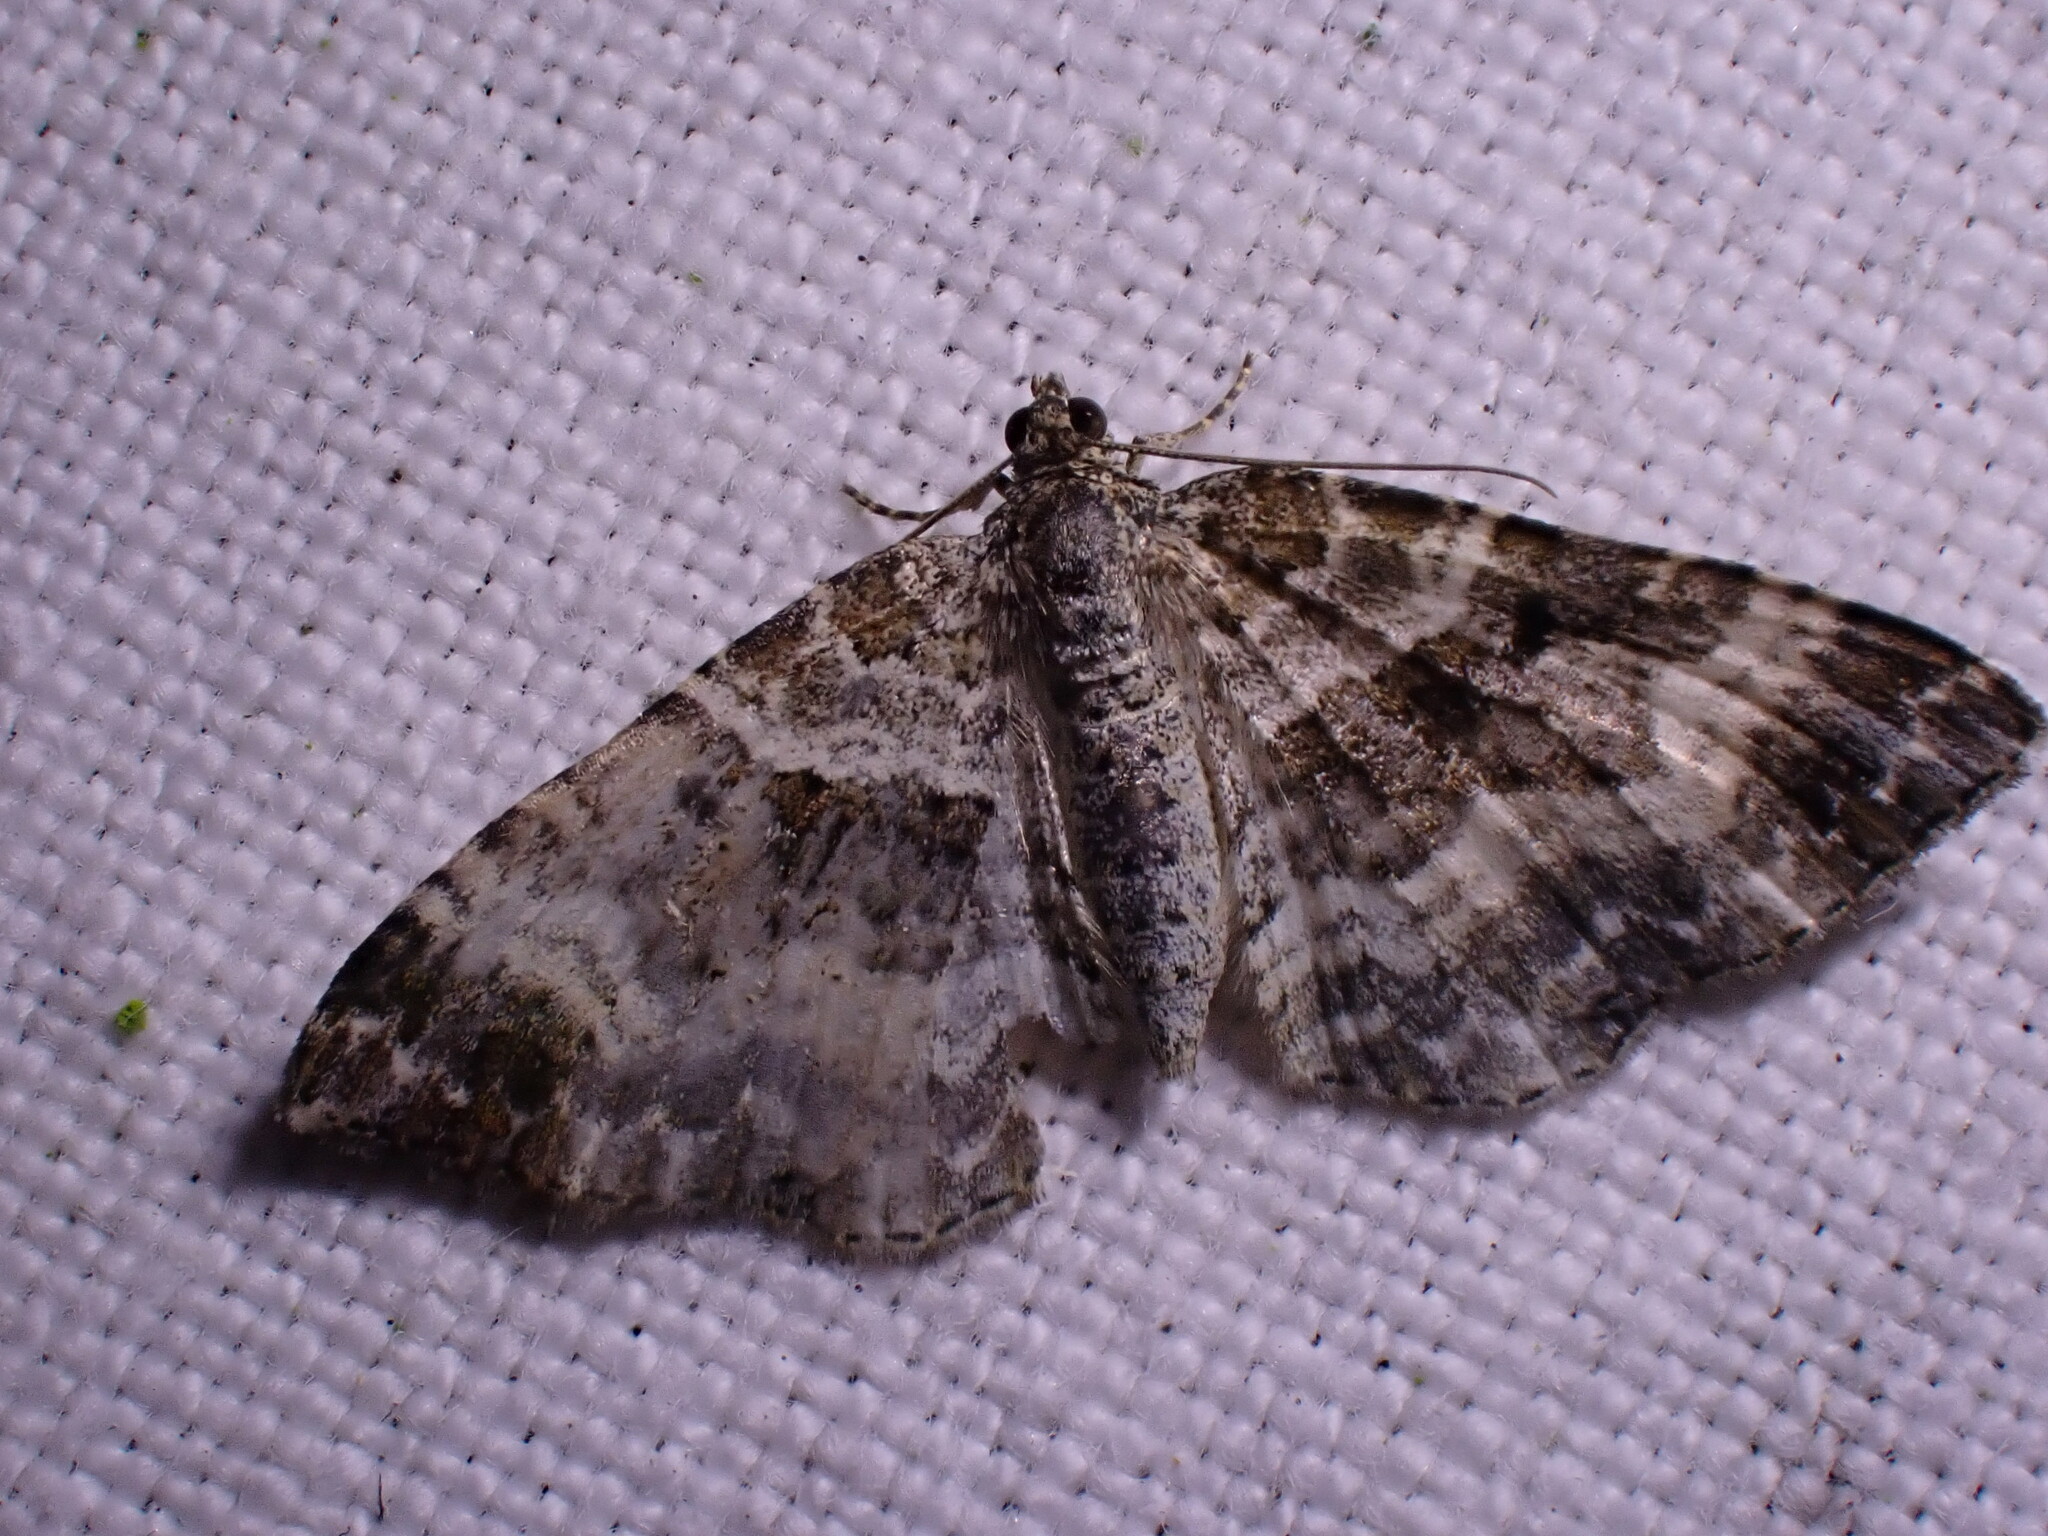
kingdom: Animalia
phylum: Arthropoda
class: Insecta
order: Lepidoptera
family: Geometridae
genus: Epirrhoe
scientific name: Epirrhoe alternata
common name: Common carpet
